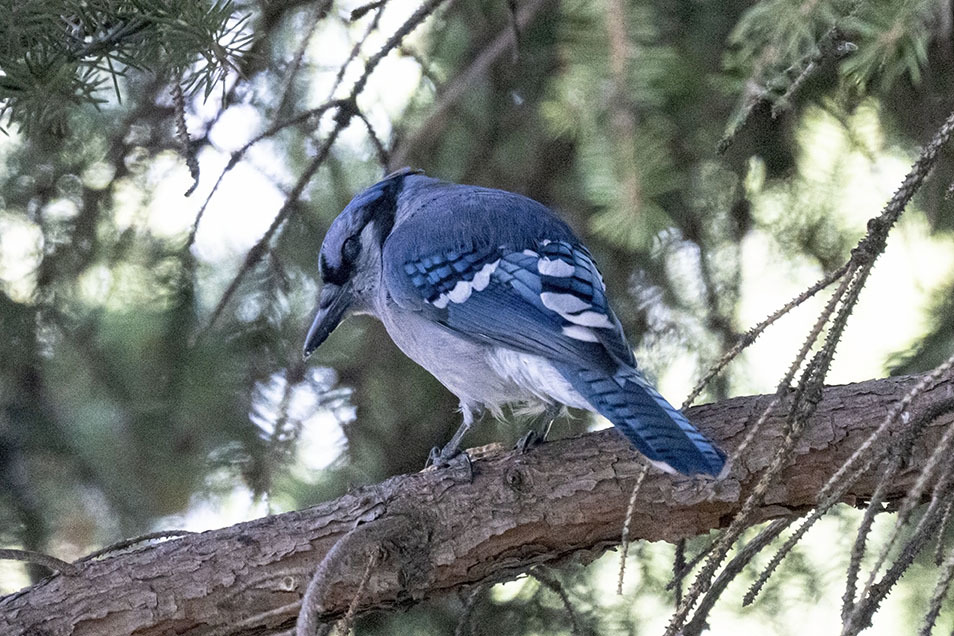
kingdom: Animalia
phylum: Chordata
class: Aves
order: Passeriformes
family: Corvidae
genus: Cyanocitta
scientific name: Cyanocitta cristata
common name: Blue jay
